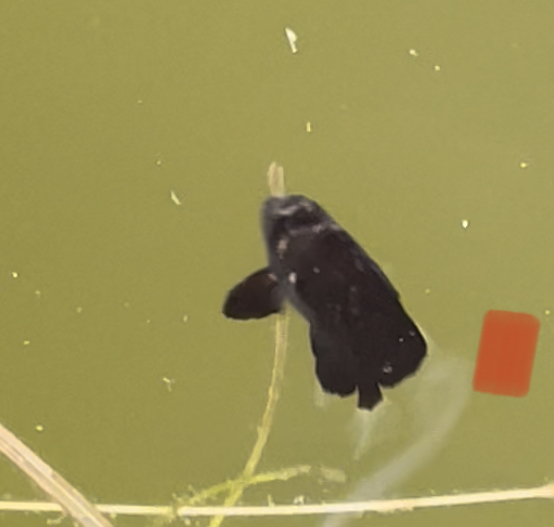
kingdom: Animalia
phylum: Chordata
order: Perciformes
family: Ephippidae
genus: Chaetodipterus
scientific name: Chaetodipterus faber
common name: Ocean cobbler
